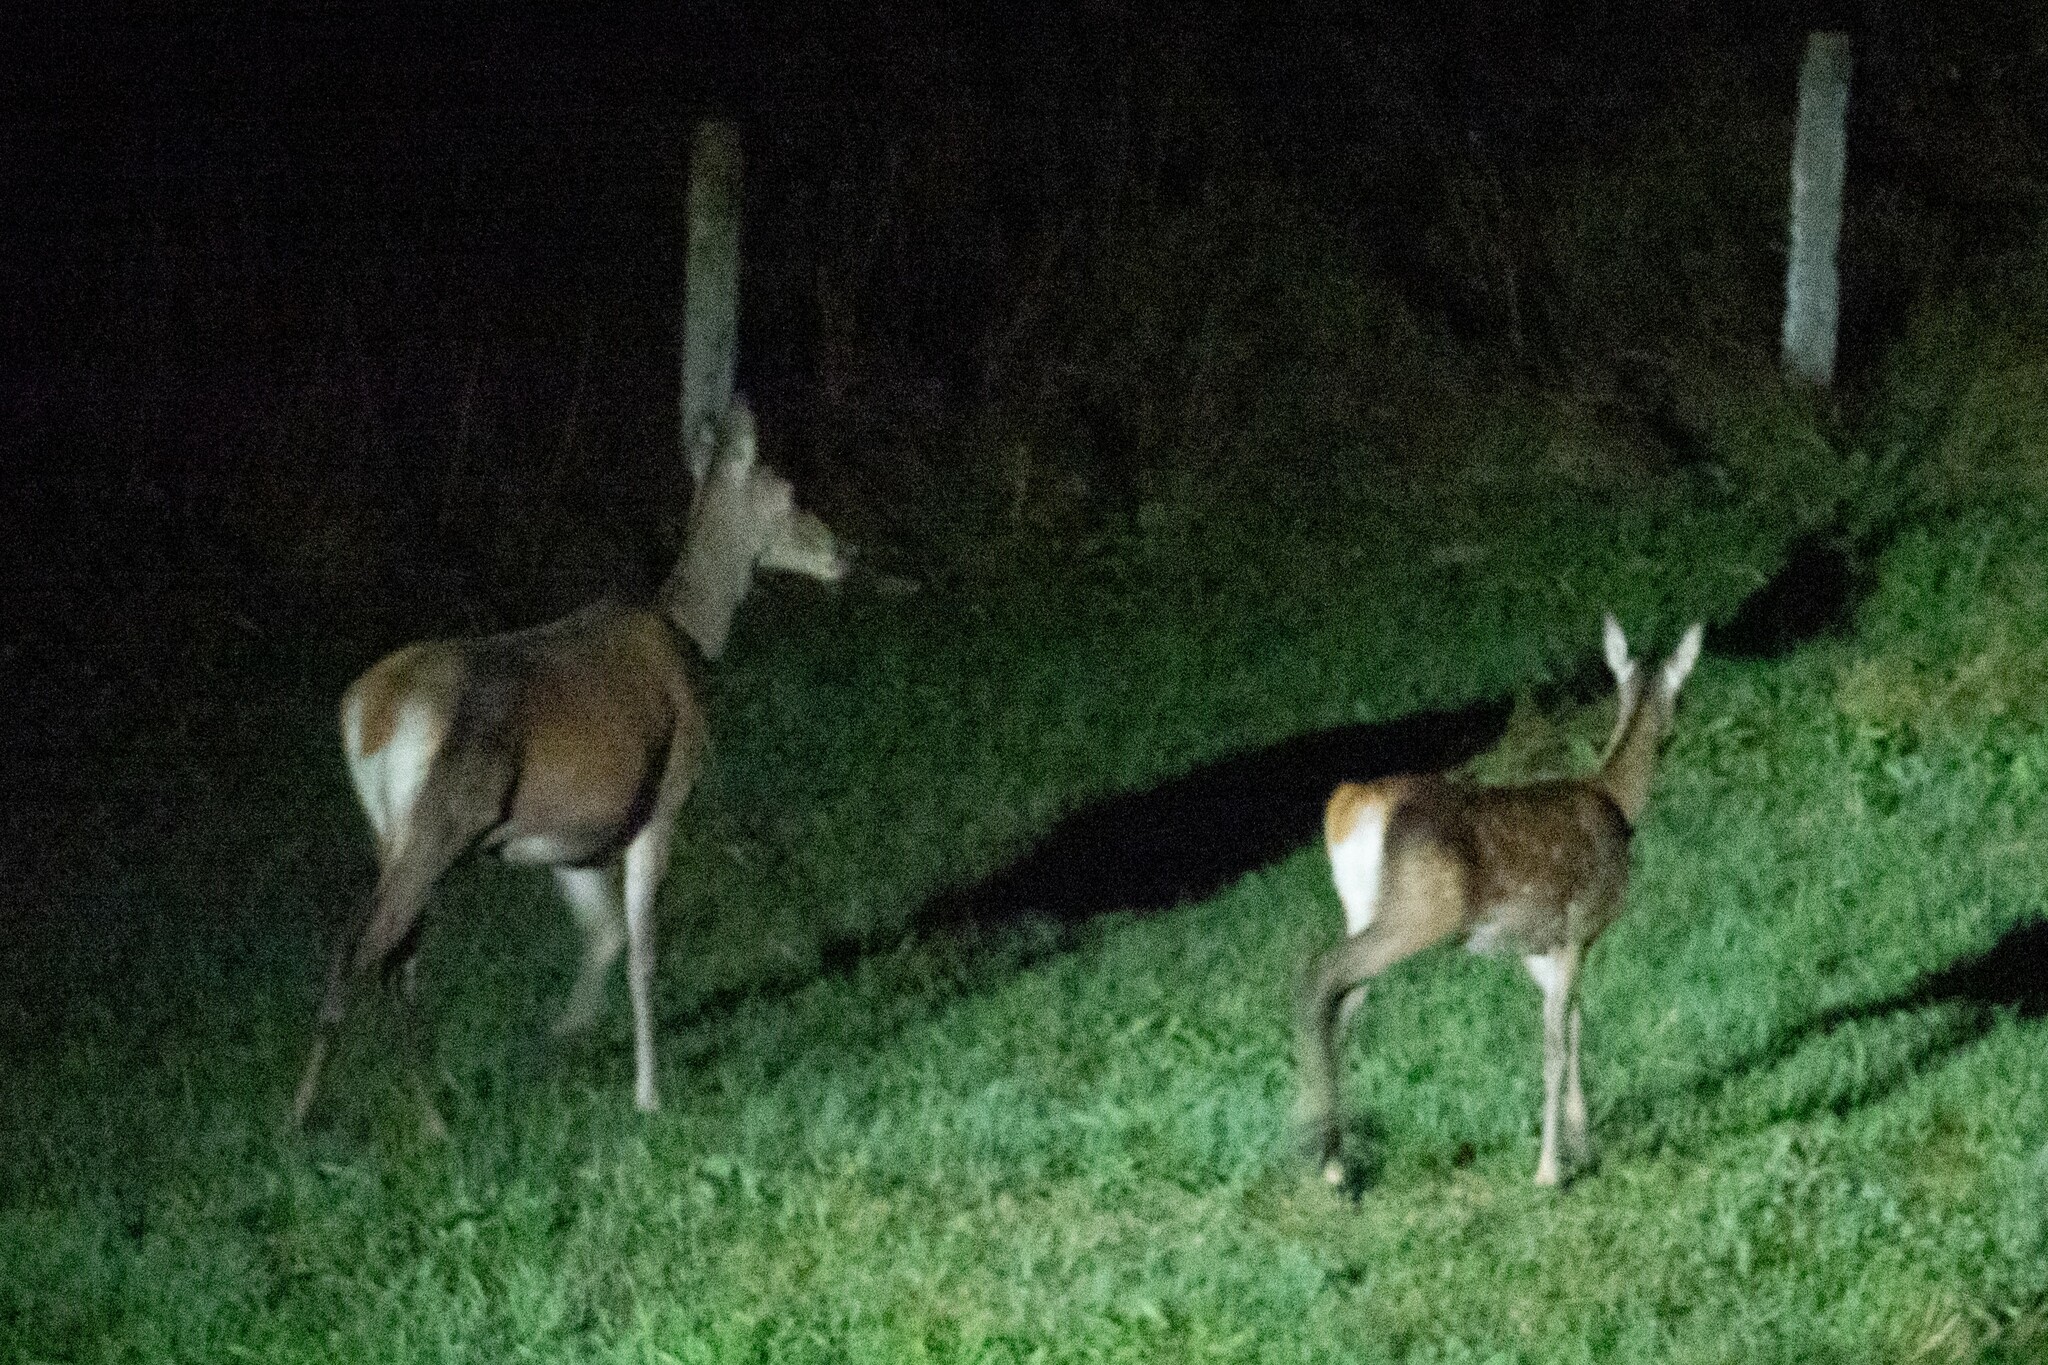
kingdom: Animalia
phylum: Chordata
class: Mammalia
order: Artiodactyla
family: Cervidae
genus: Cervus
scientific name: Cervus elaphus
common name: Red deer
